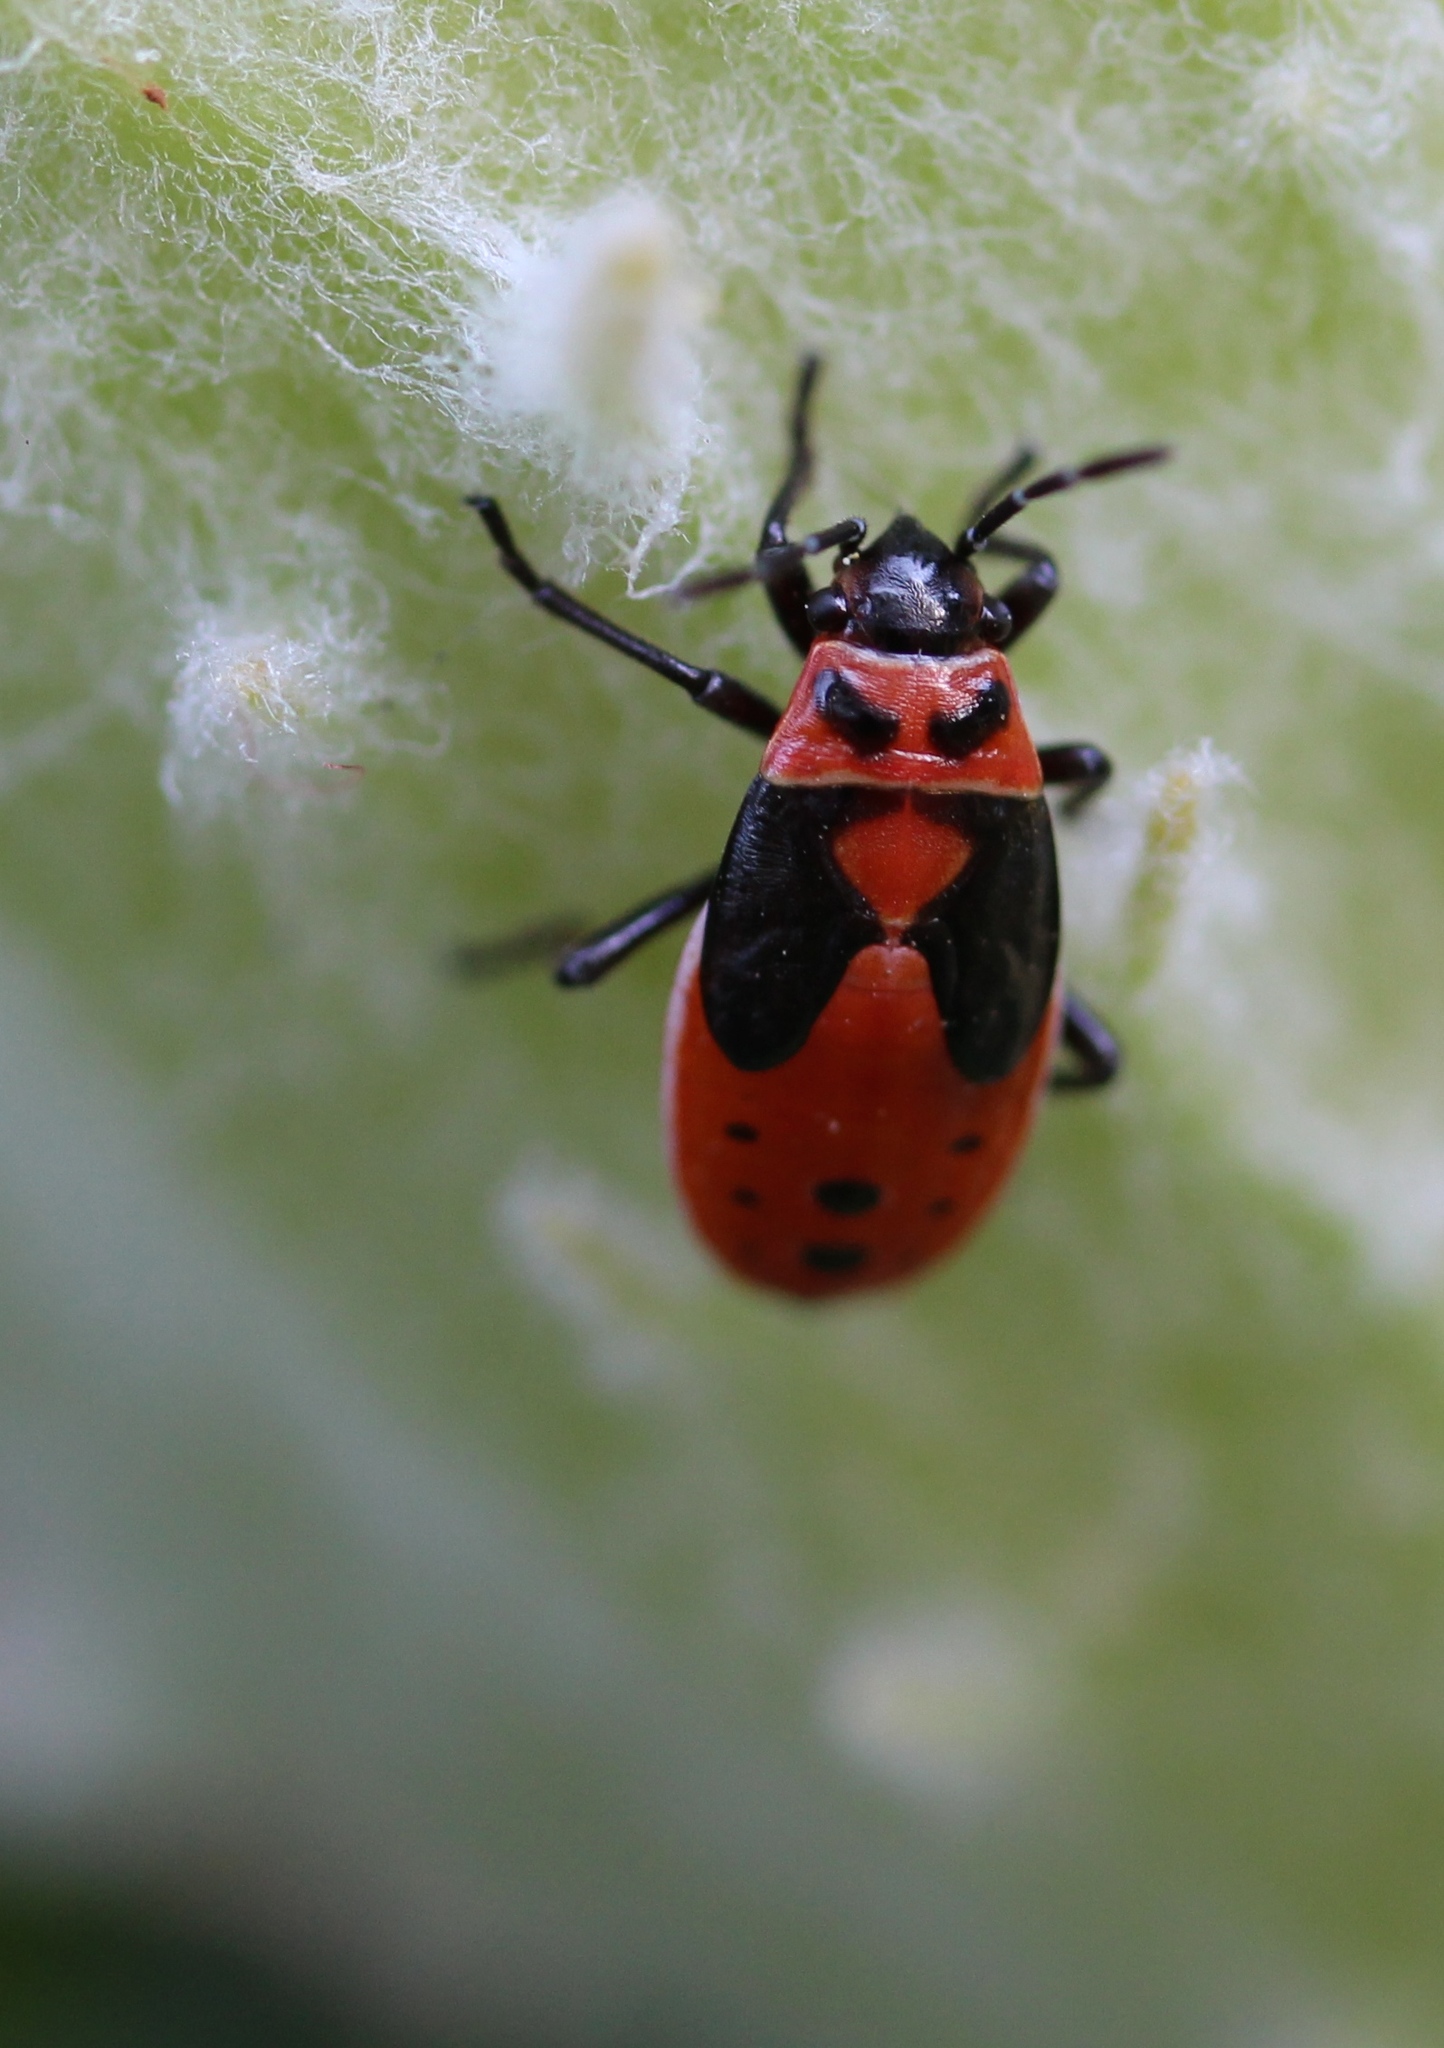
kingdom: Animalia
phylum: Arthropoda
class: Insecta
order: Hemiptera
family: Lygaeidae
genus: Lygaeus
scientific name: Lygaeus kalmii
